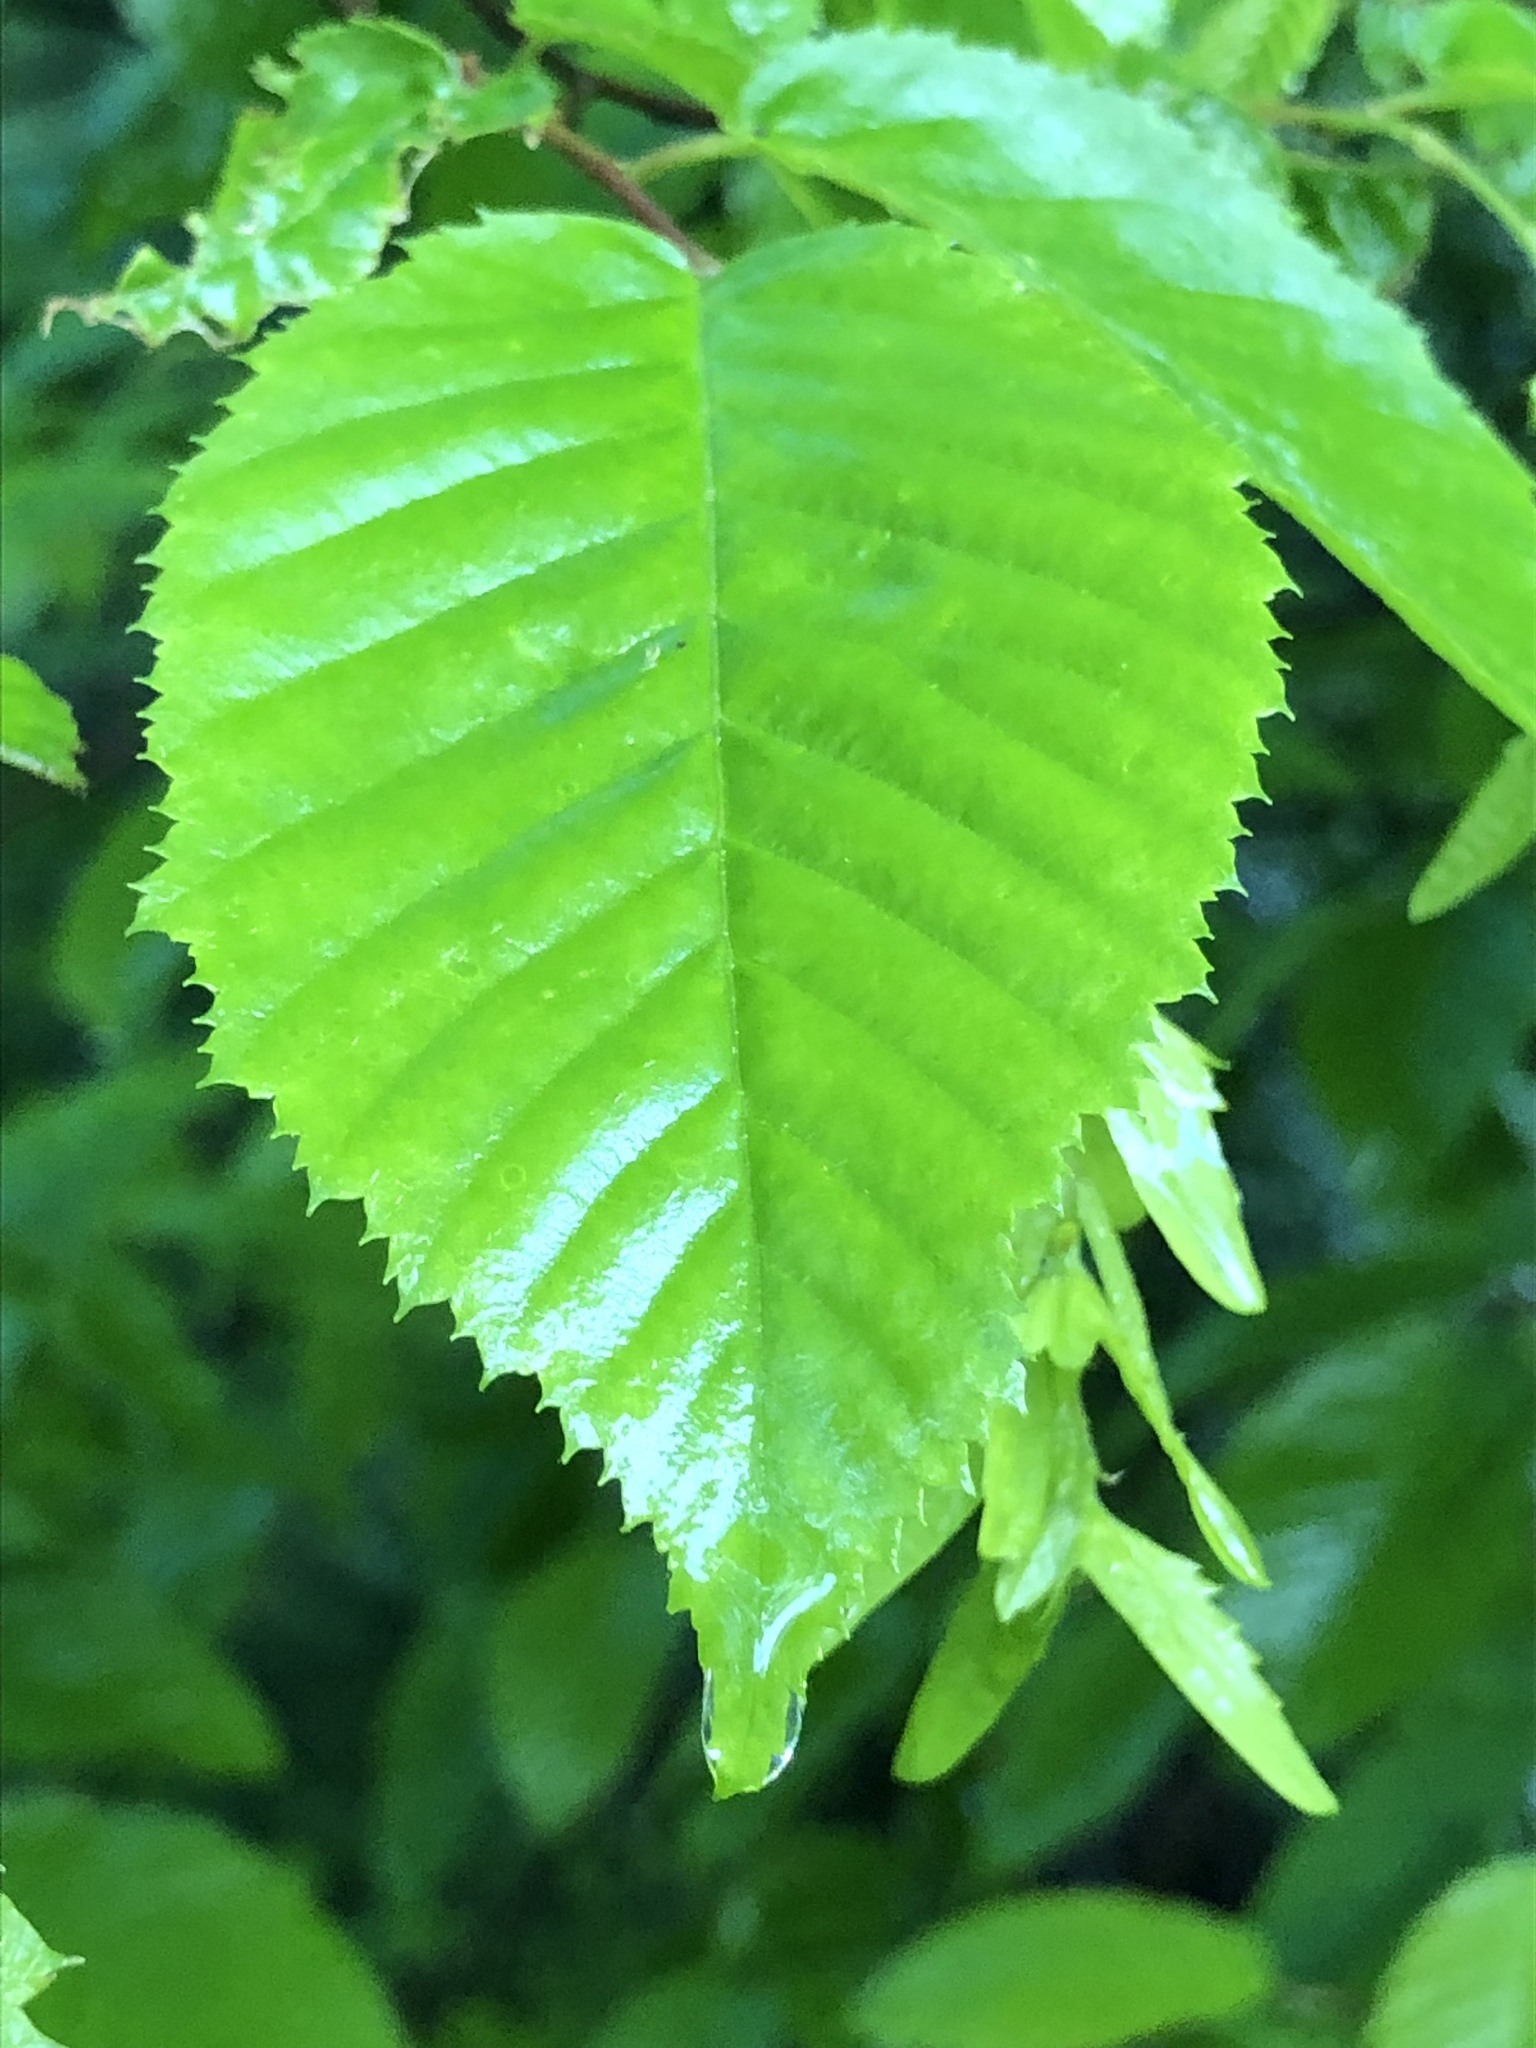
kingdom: Plantae
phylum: Tracheophyta
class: Magnoliopsida
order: Fagales
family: Betulaceae
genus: Carpinus
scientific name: Carpinus caroliniana
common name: American hornbeam
